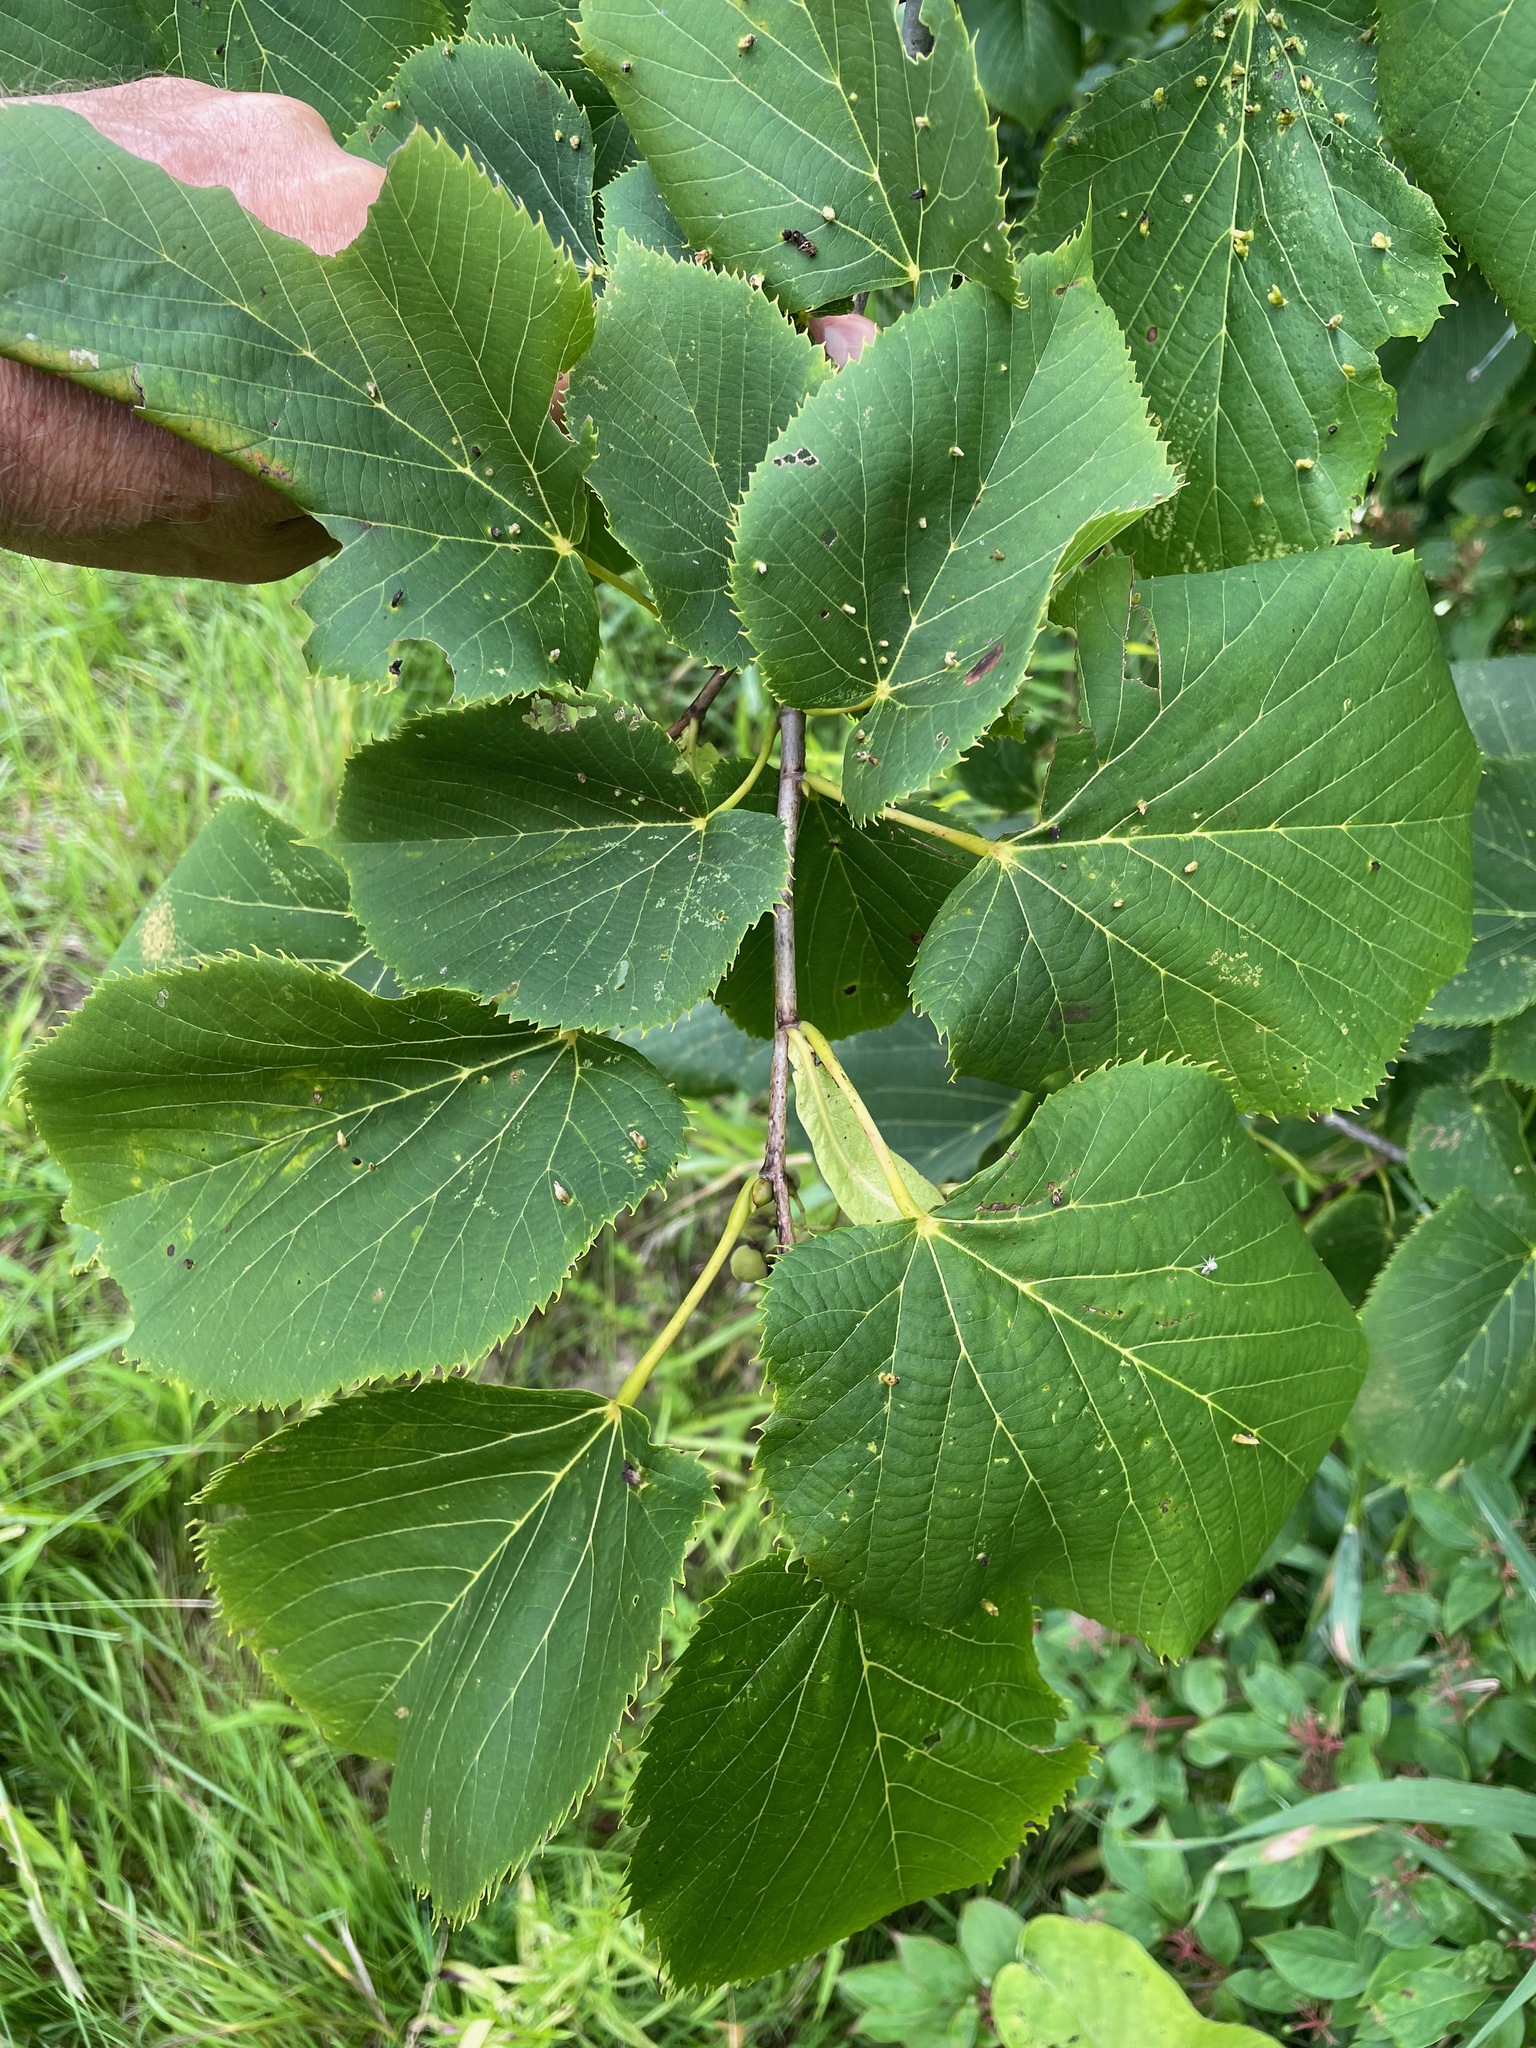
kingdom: Plantae
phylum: Tracheophyta
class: Magnoliopsida
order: Malvales
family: Malvaceae
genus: Tilia
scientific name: Tilia americana
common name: Basswood
